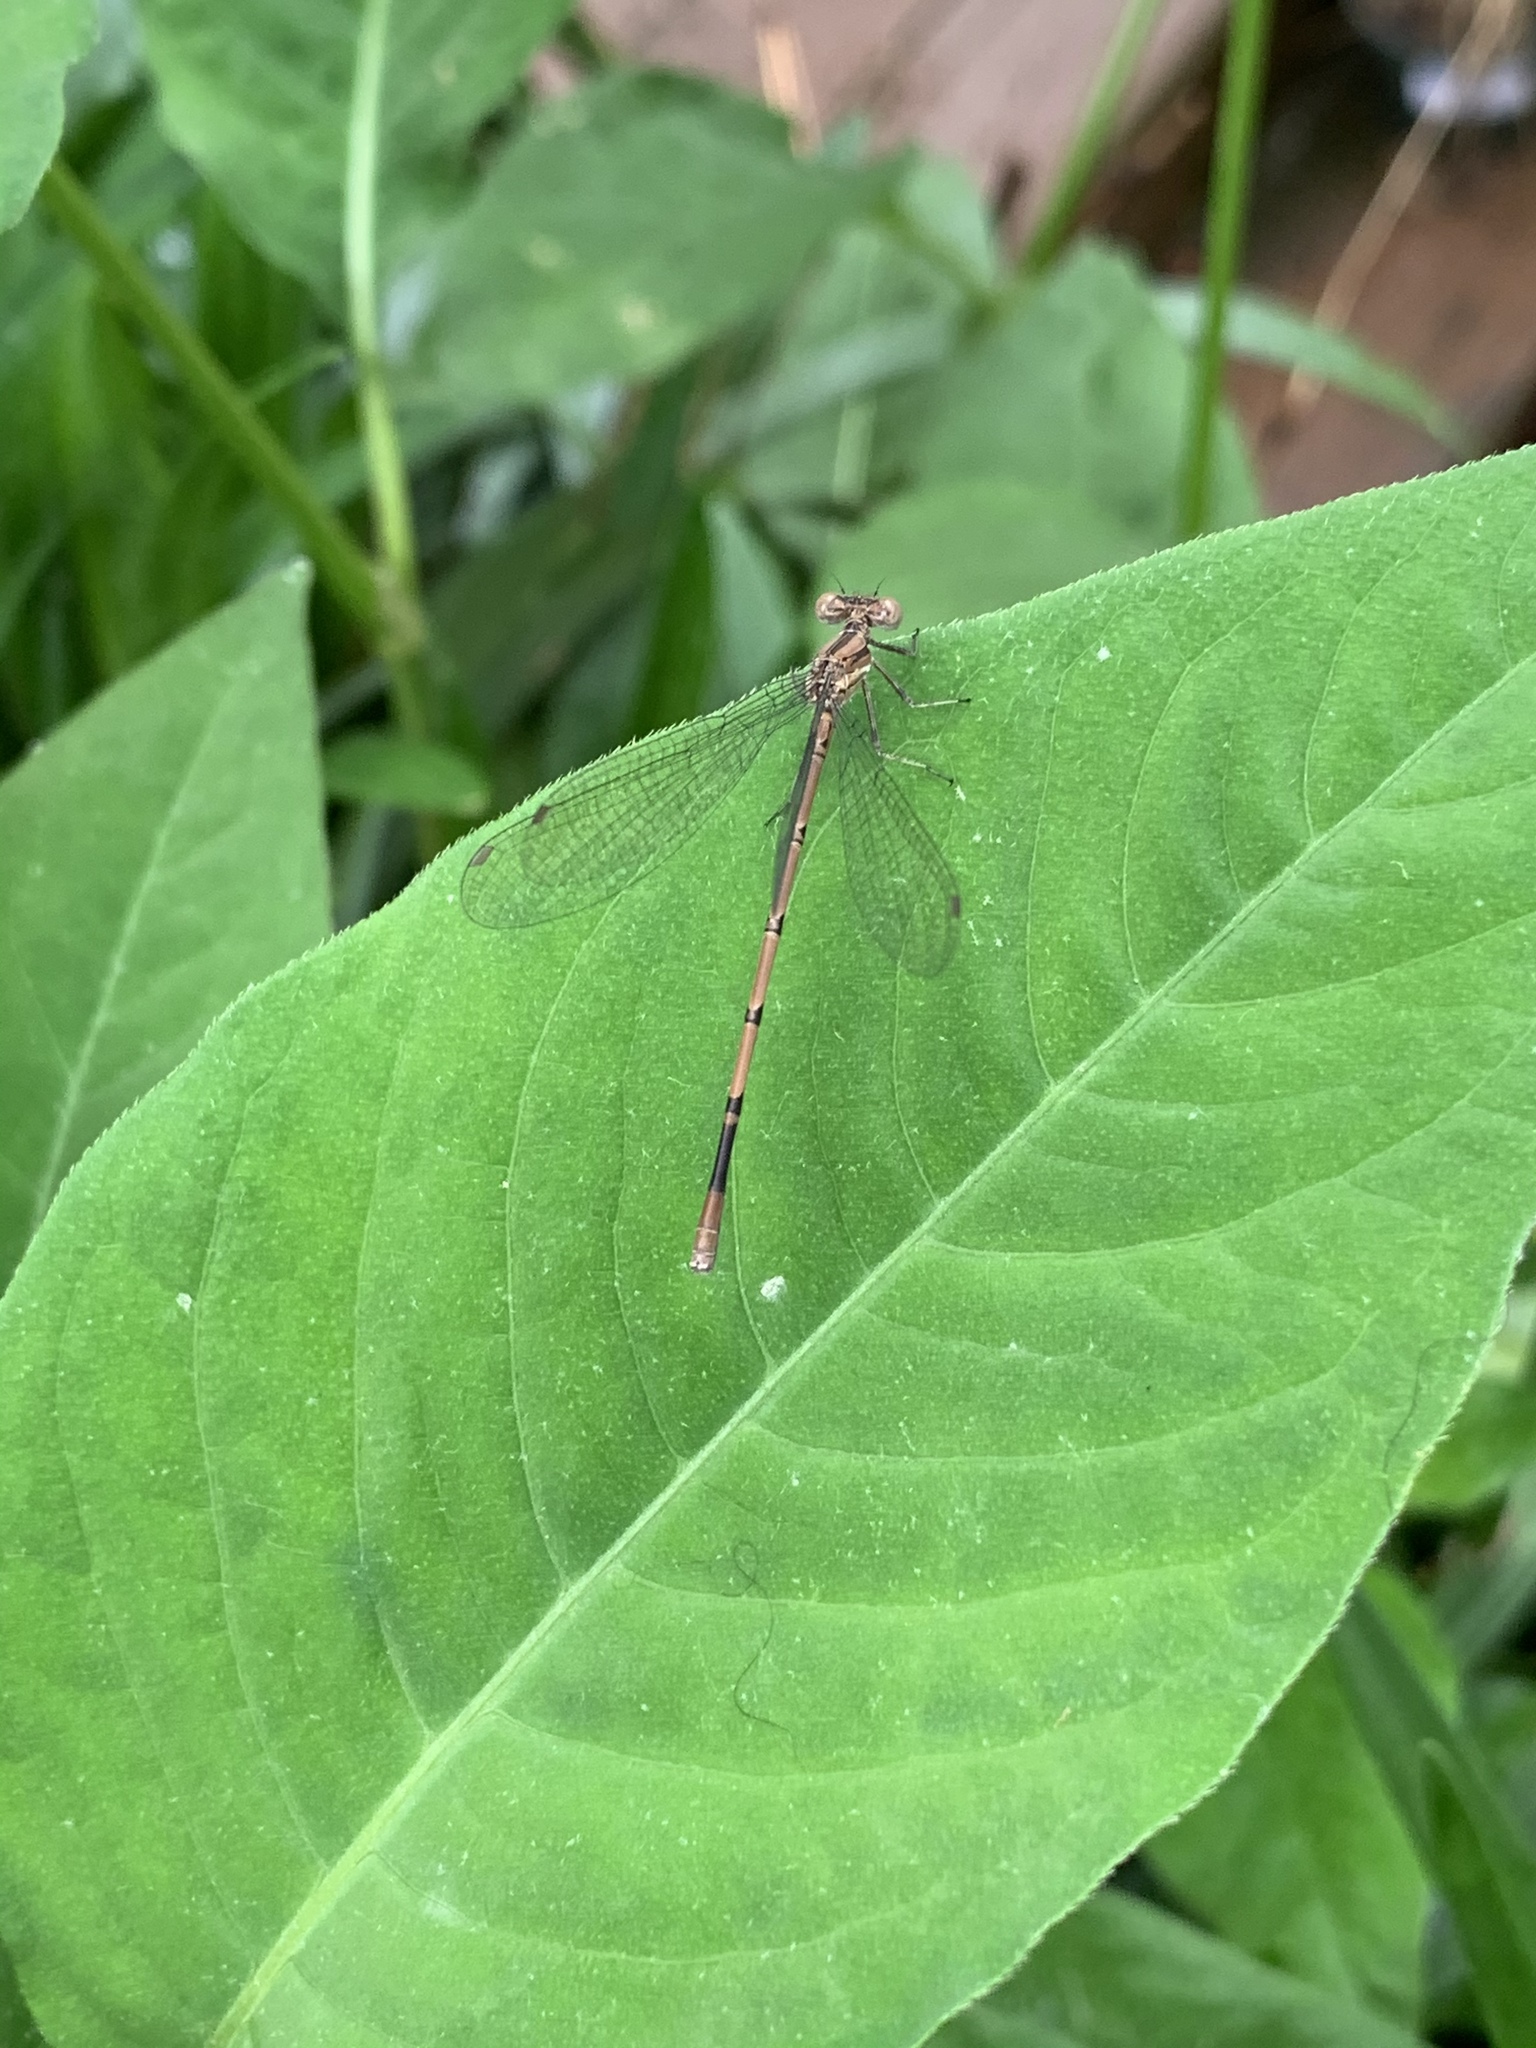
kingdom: Animalia
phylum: Arthropoda
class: Insecta
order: Odonata
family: Coenagrionidae
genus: Argia
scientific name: Argia fumipennis
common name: Variable dancer
